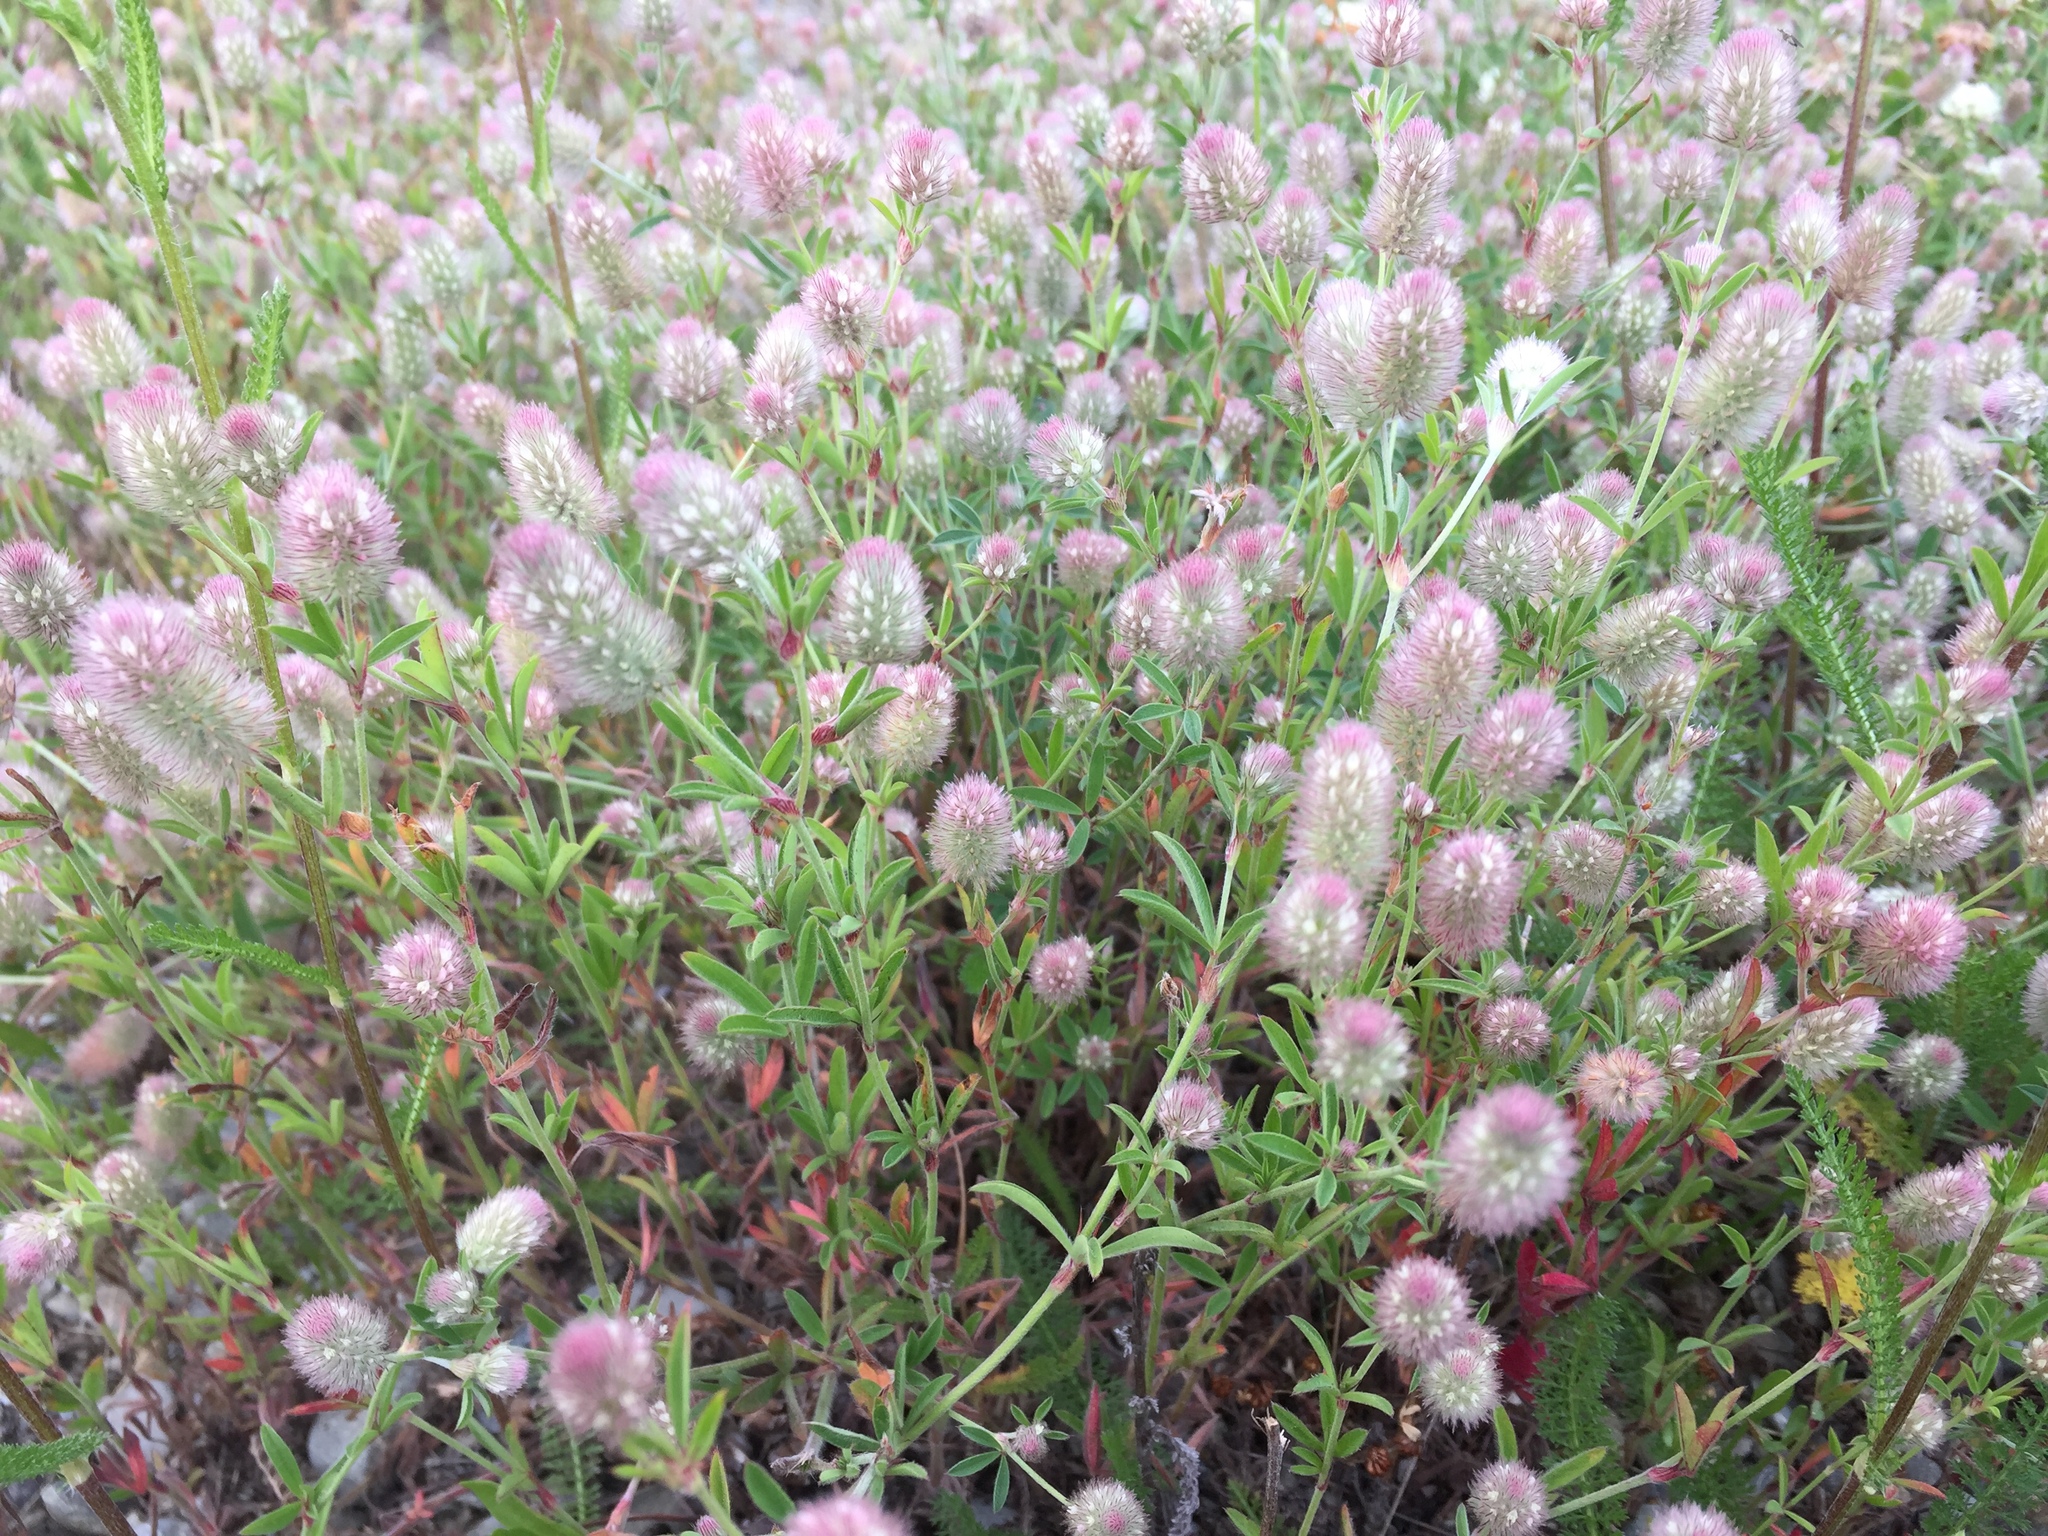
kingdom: Plantae
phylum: Tracheophyta
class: Magnoliopsida
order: Fabales
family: Fabaceae
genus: Trifolium
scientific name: Trifolium arvense
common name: Hare's-foot clover
